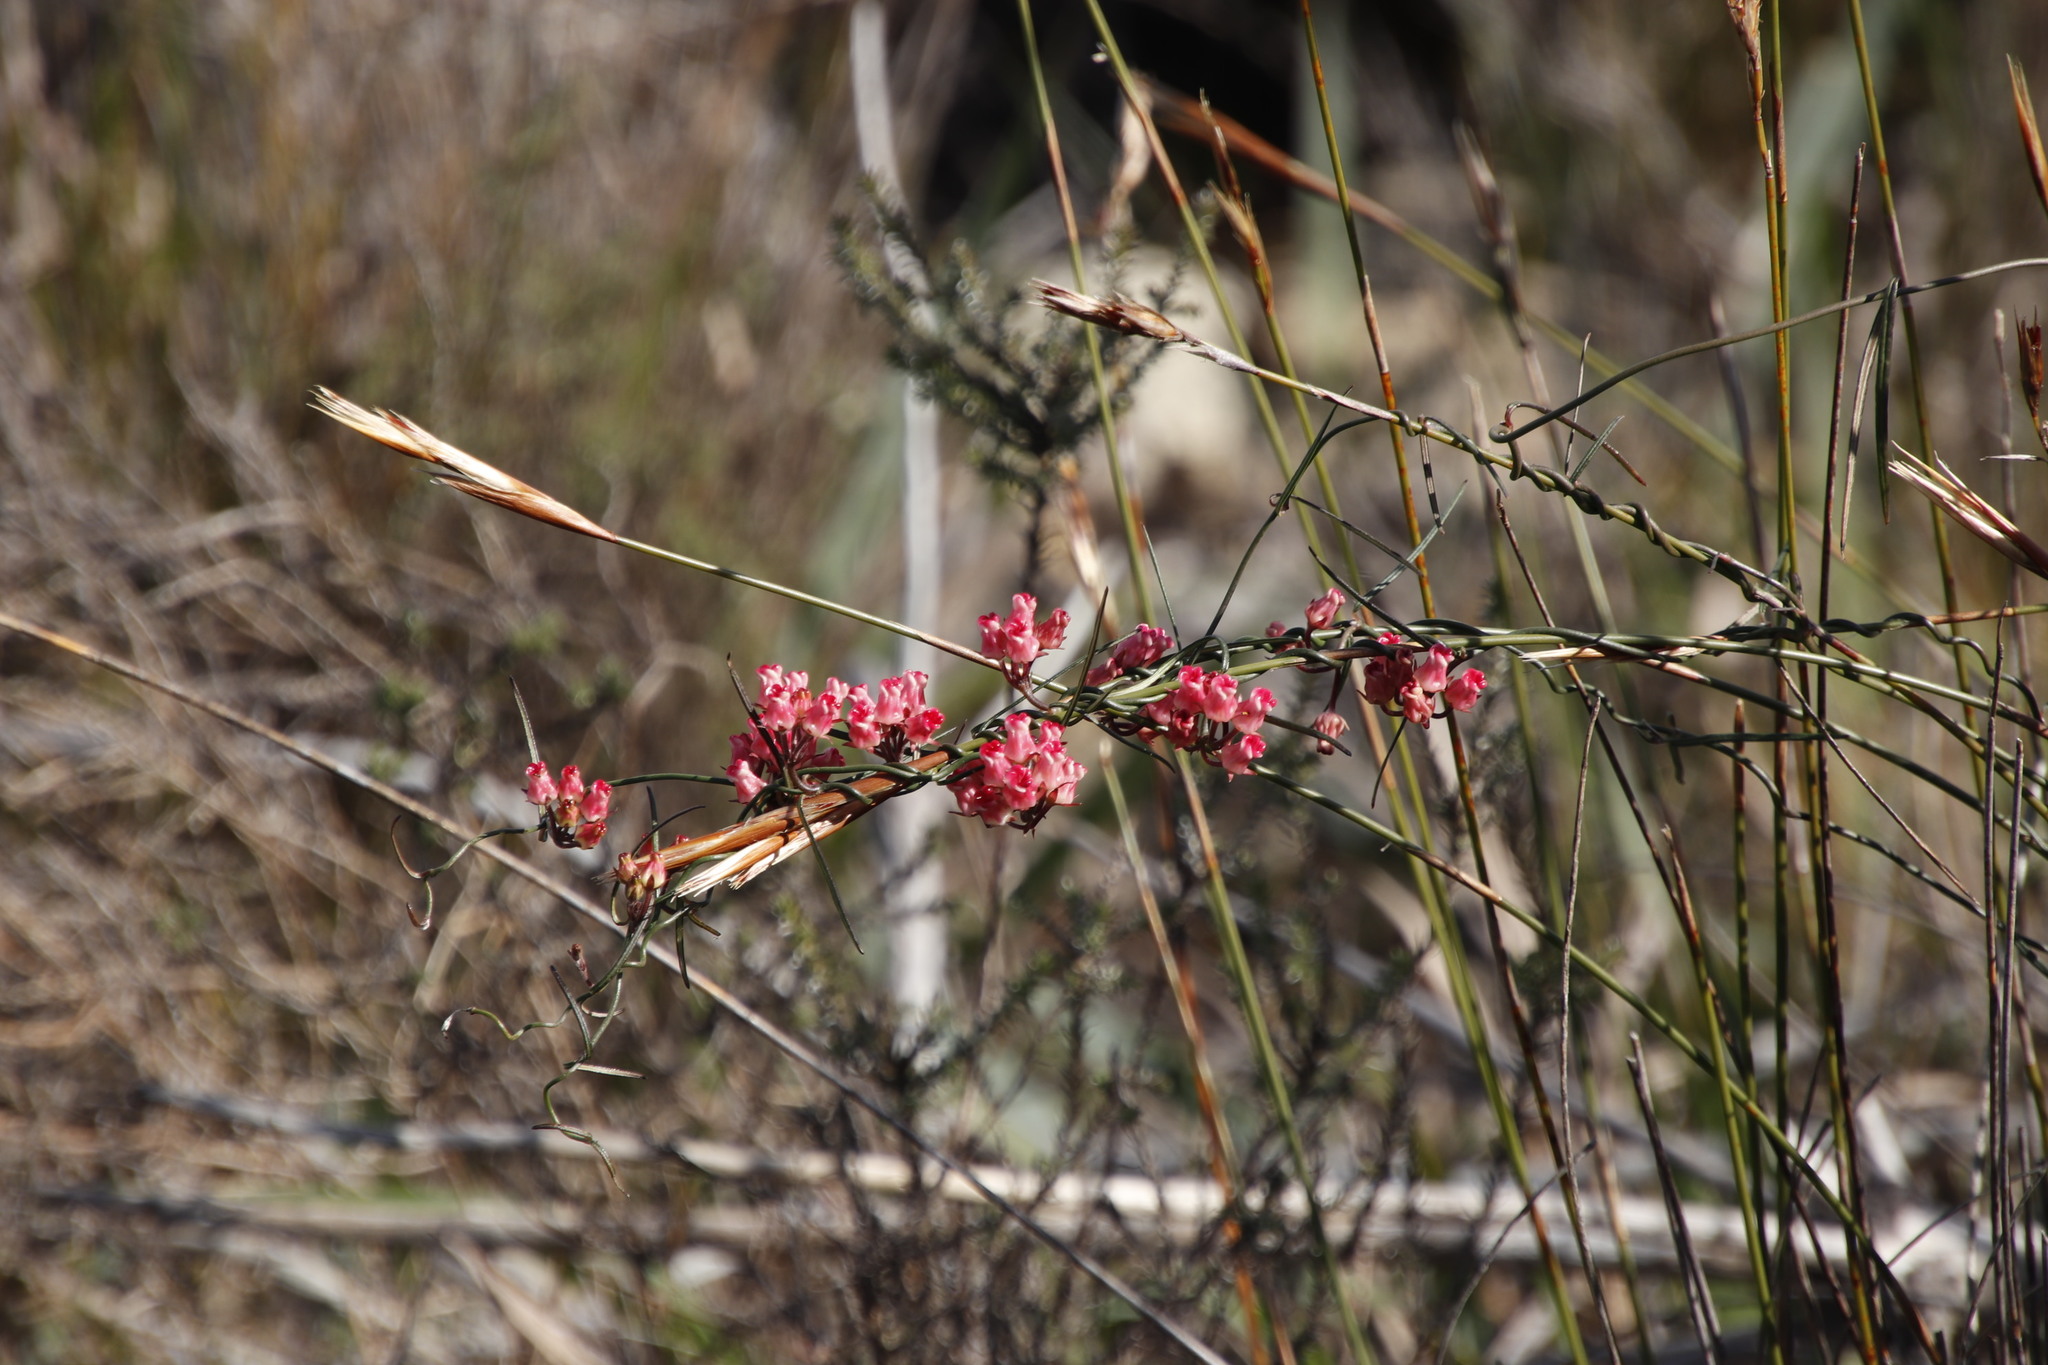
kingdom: Plantae
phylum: Tracheophyta
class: Magnoliopsida
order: Gentianales
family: Apocynaceae
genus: Microloma
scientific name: Microloma tenuifolium
